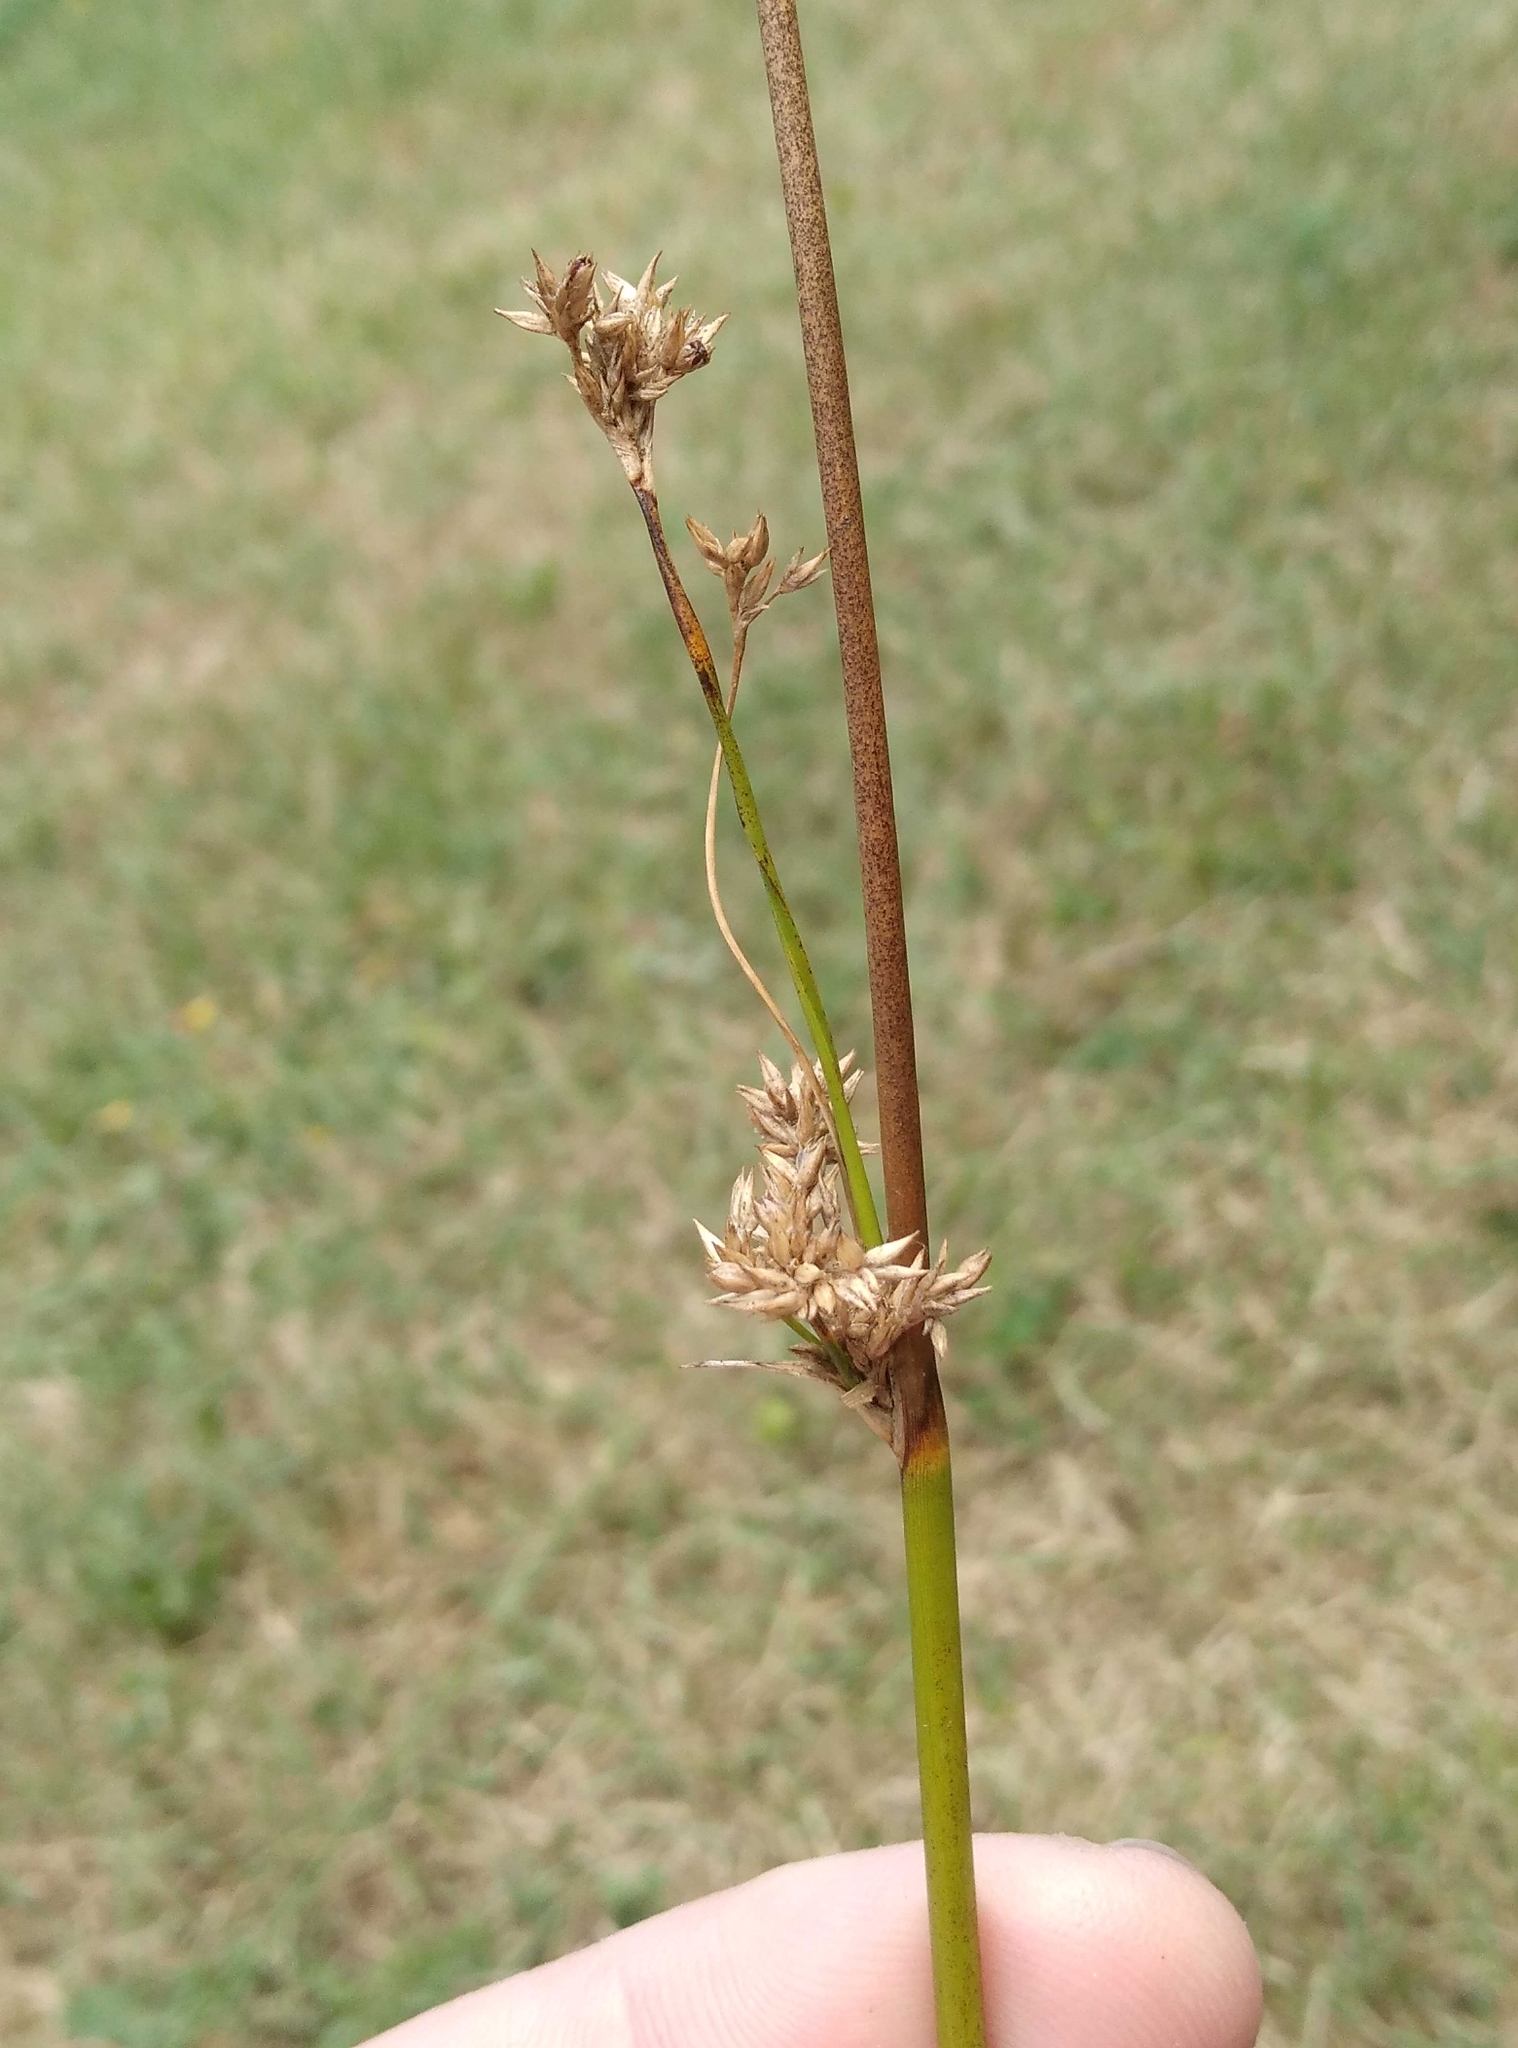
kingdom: Plantae
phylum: Tracheophyta
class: Liliopsida
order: Poales
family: Juncaceae
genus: Juncus
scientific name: Juncus edgariae
